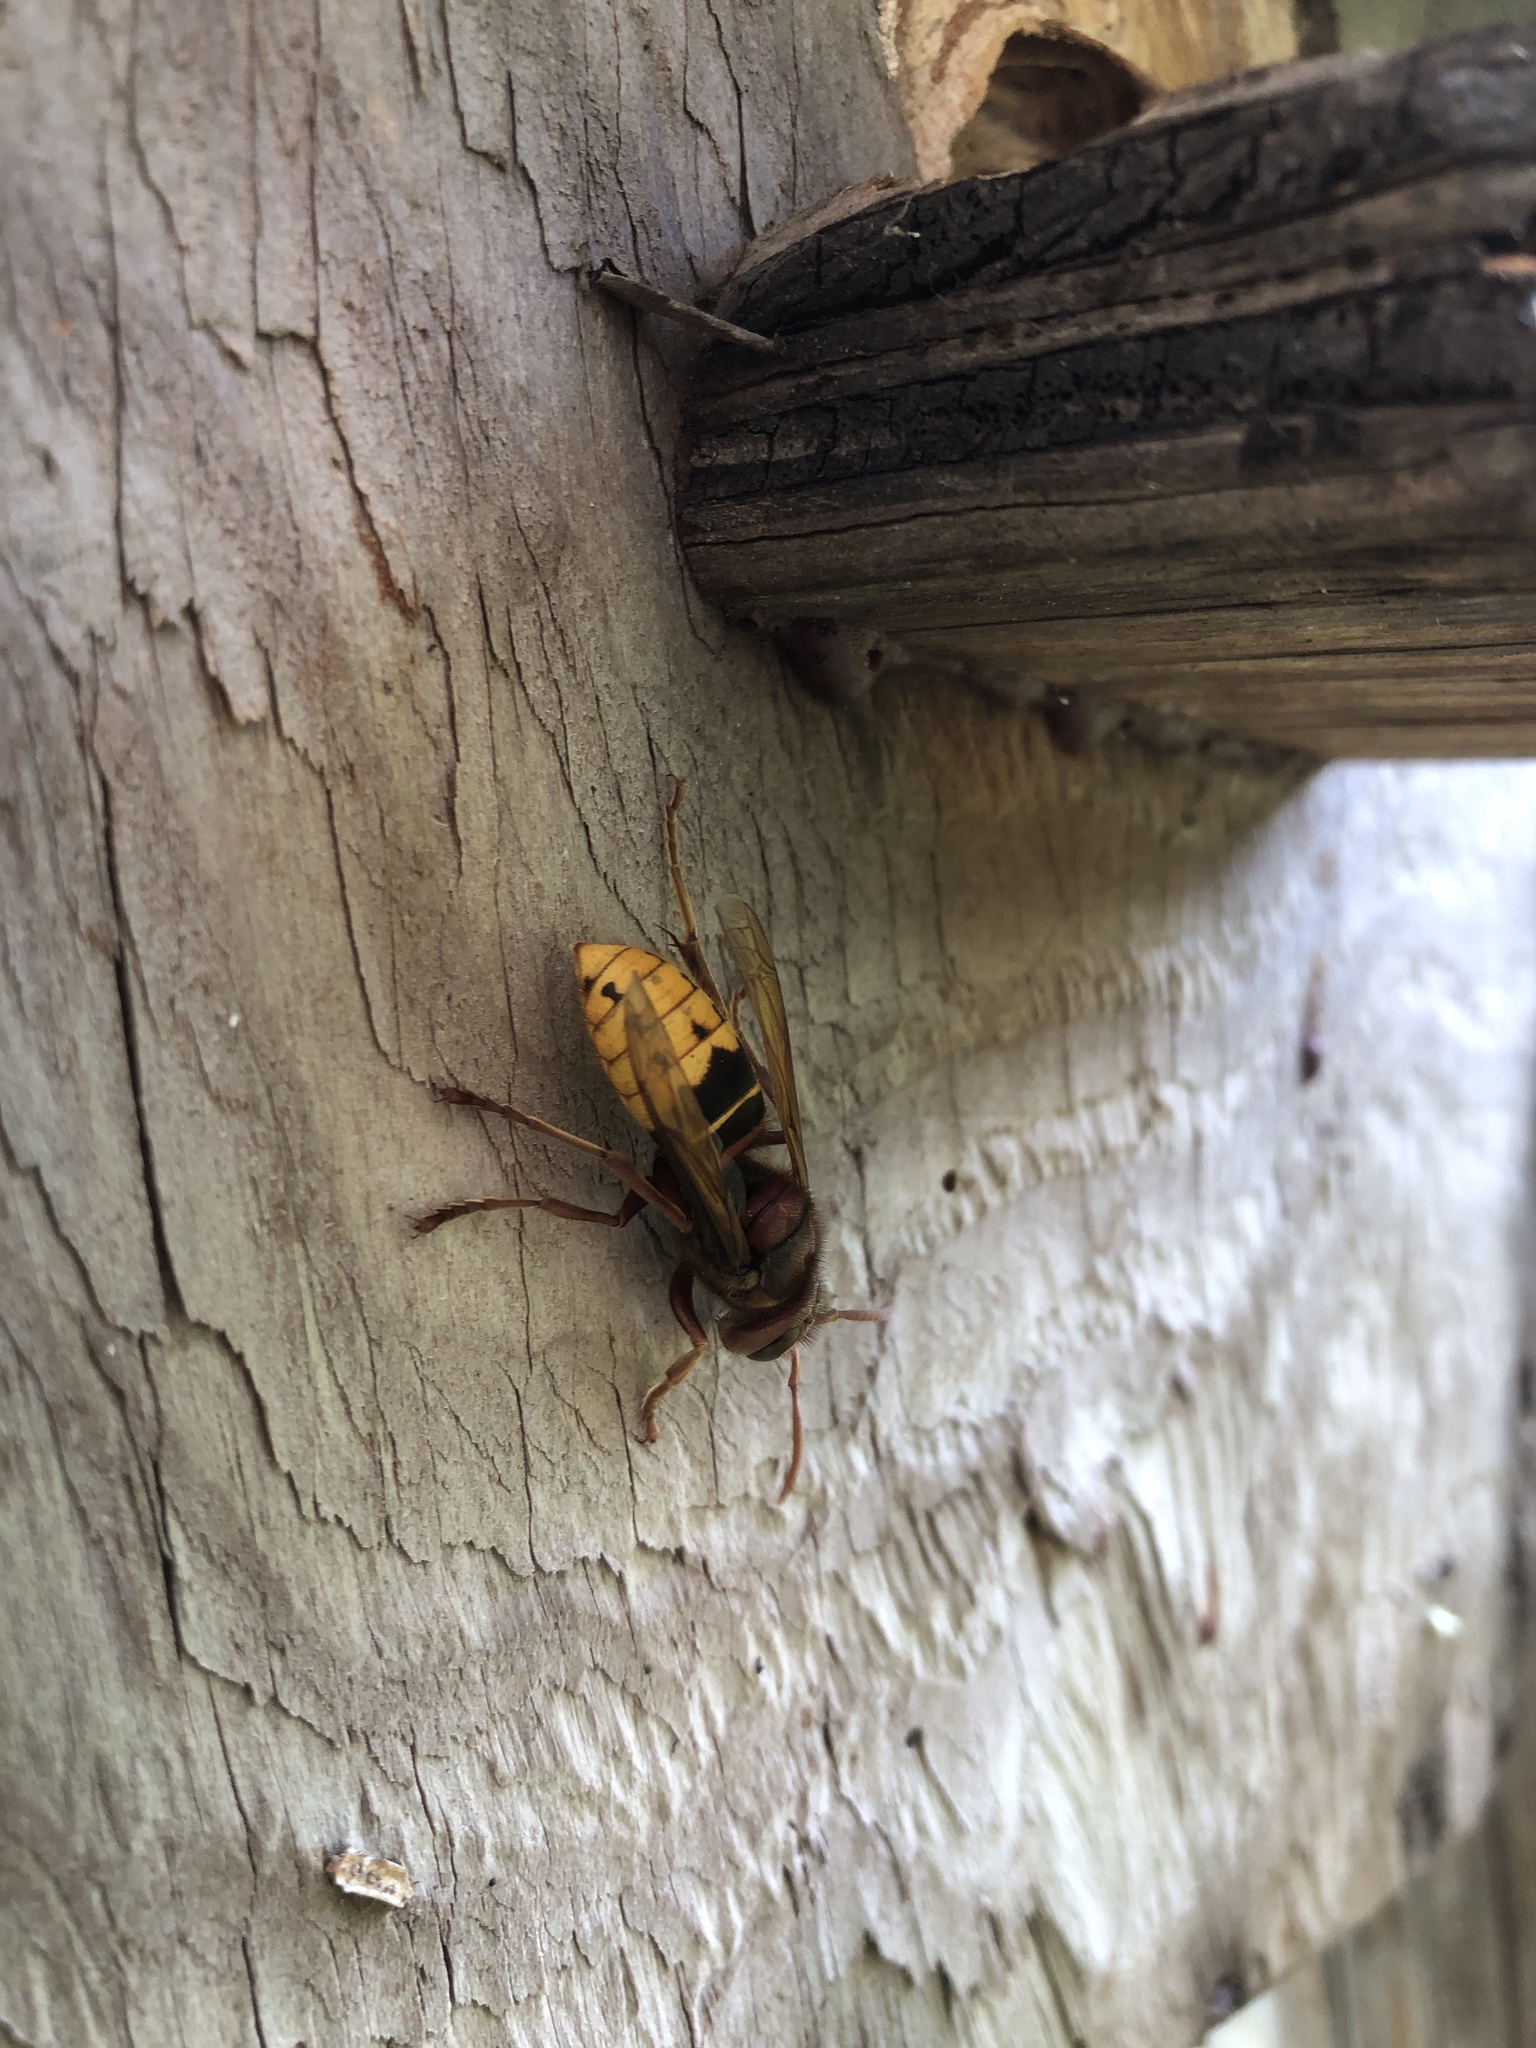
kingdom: Animalia
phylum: Arthropoda
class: Insecta
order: Hymenoptera
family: Vespidae
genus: Vespa
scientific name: Vespa crabro
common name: Hornet
